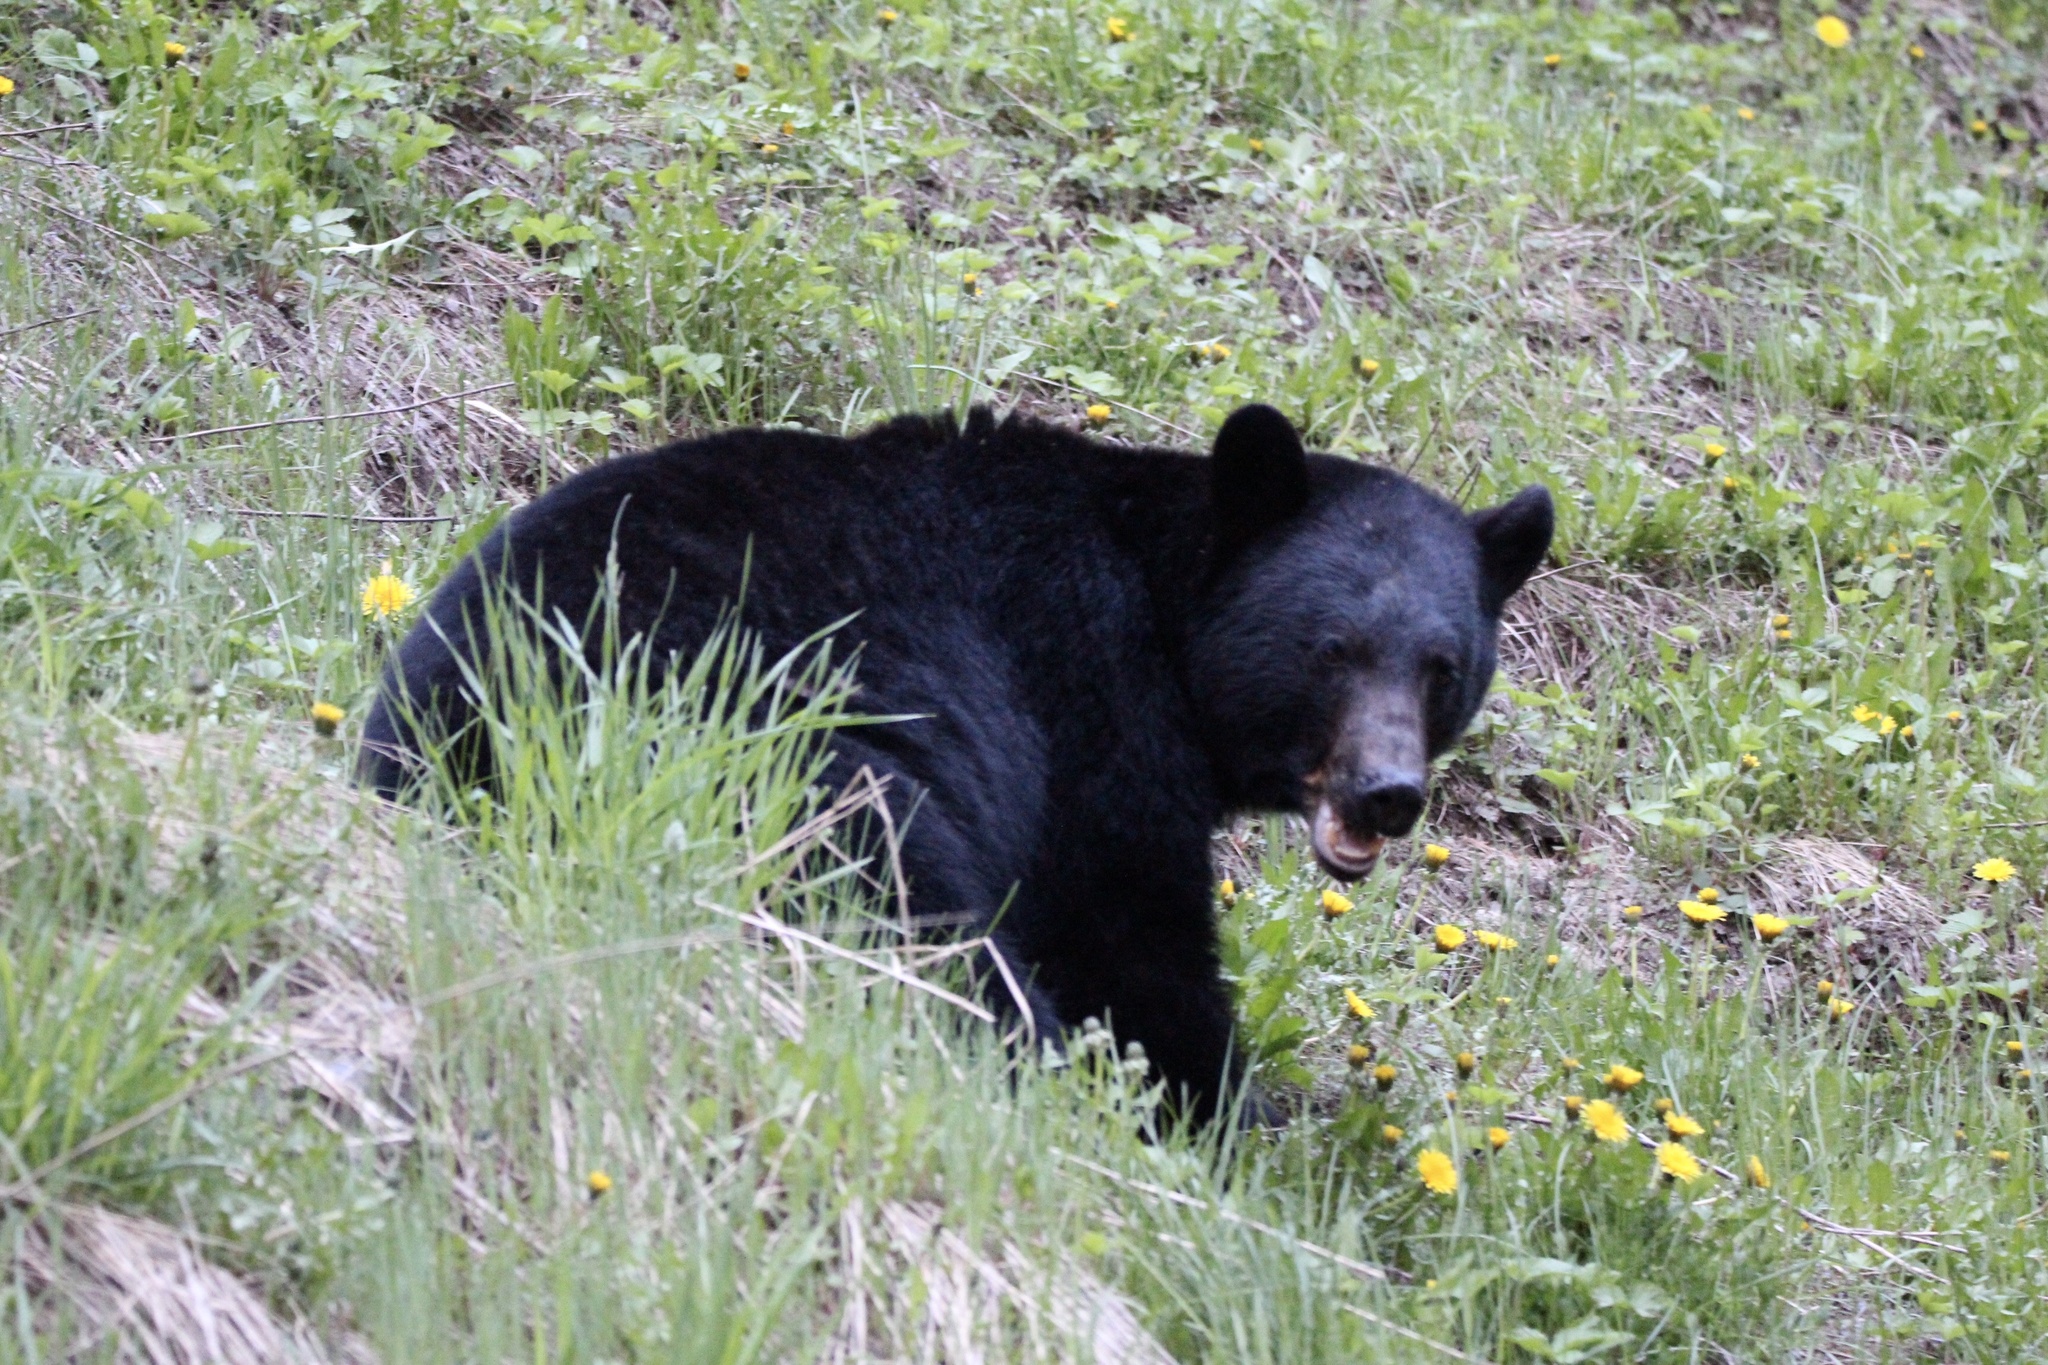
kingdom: Animalia
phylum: Chordata
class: Mammalia
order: Carnivora
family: Ursidae
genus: Ursus
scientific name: Ursus americanus
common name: American black bear
